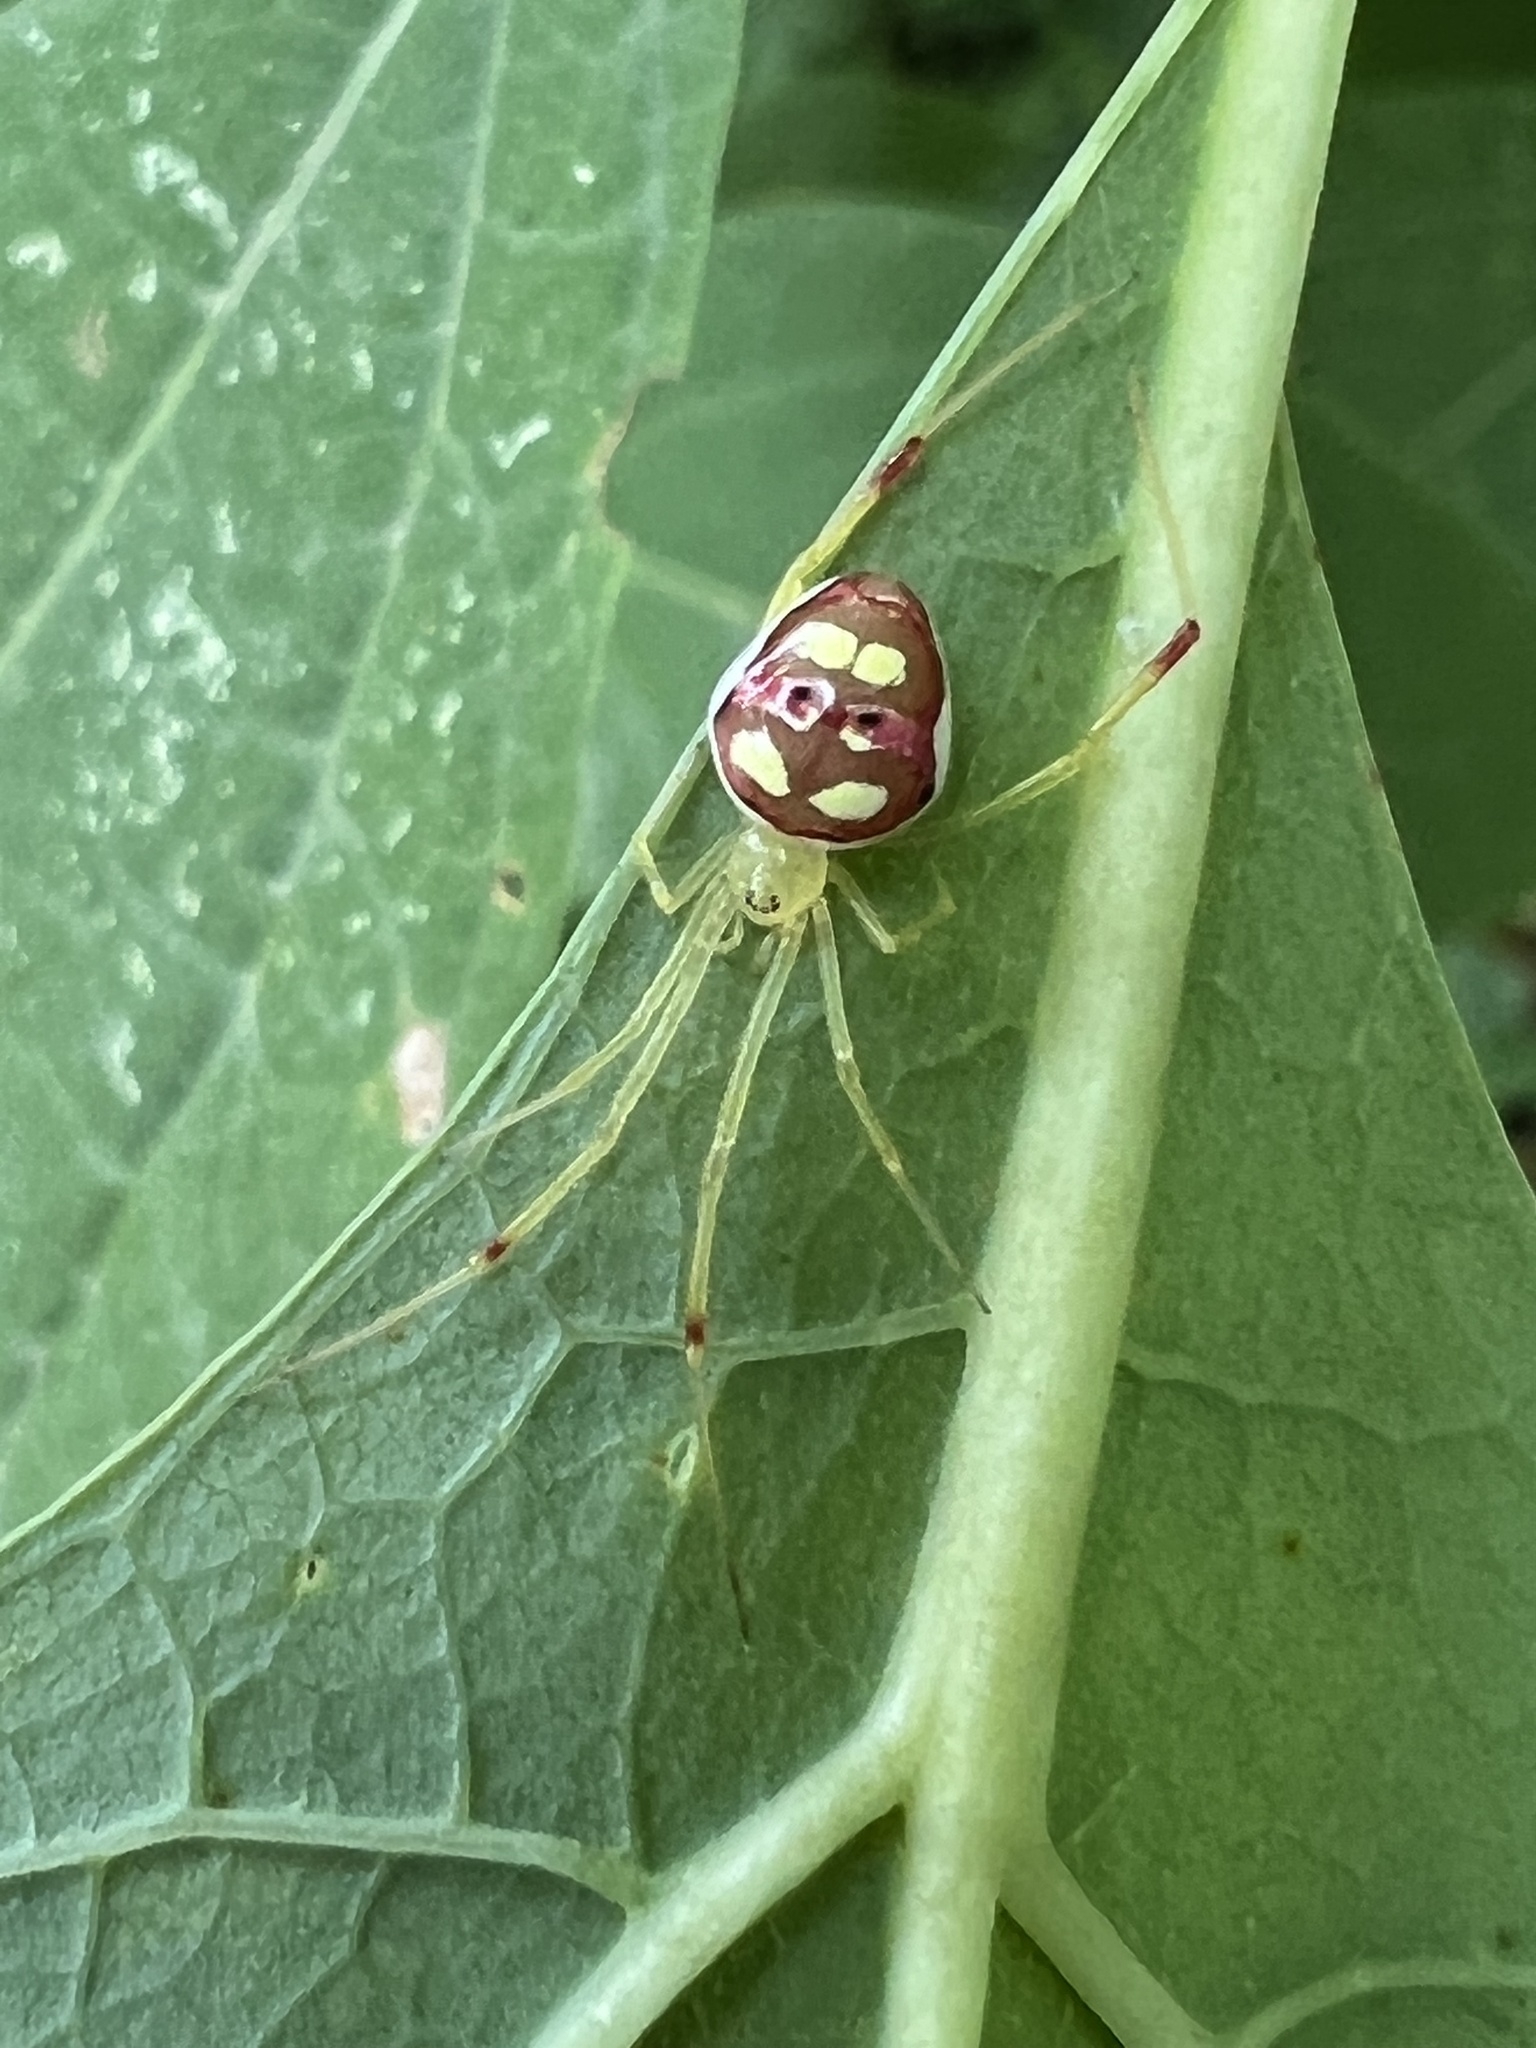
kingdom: Animalia
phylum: Arthropoda
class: Arachnida
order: Araneae
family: Theridiidae
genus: Spintharus
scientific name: Spintharus flavidus
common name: Cobweb spiders
